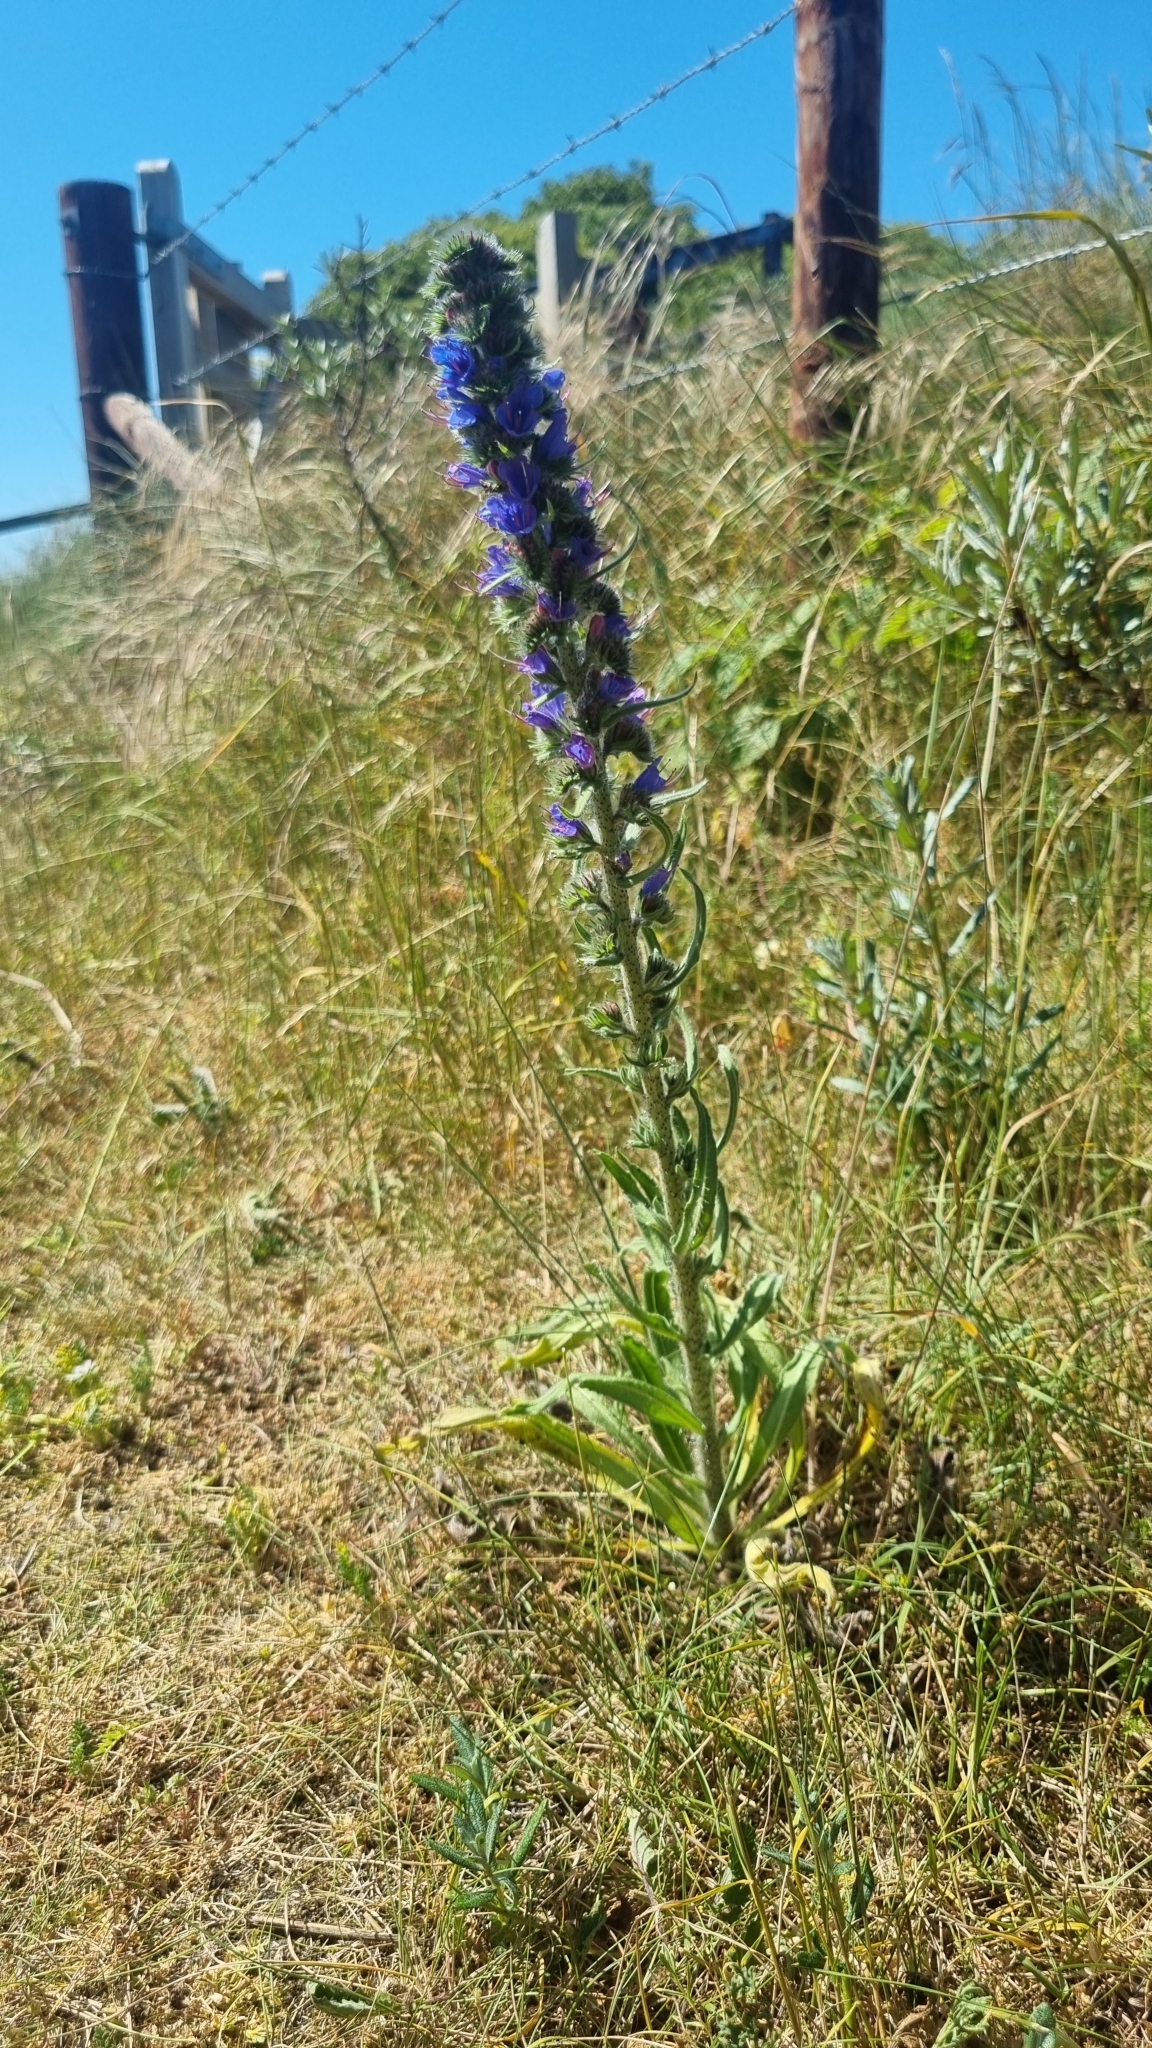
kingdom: Plantae
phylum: Tracheophyta
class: Magnoliopsida
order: Boraginales
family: Boraginaceae
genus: Echium
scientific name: Echium vulgare
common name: Common viper's bugloss
